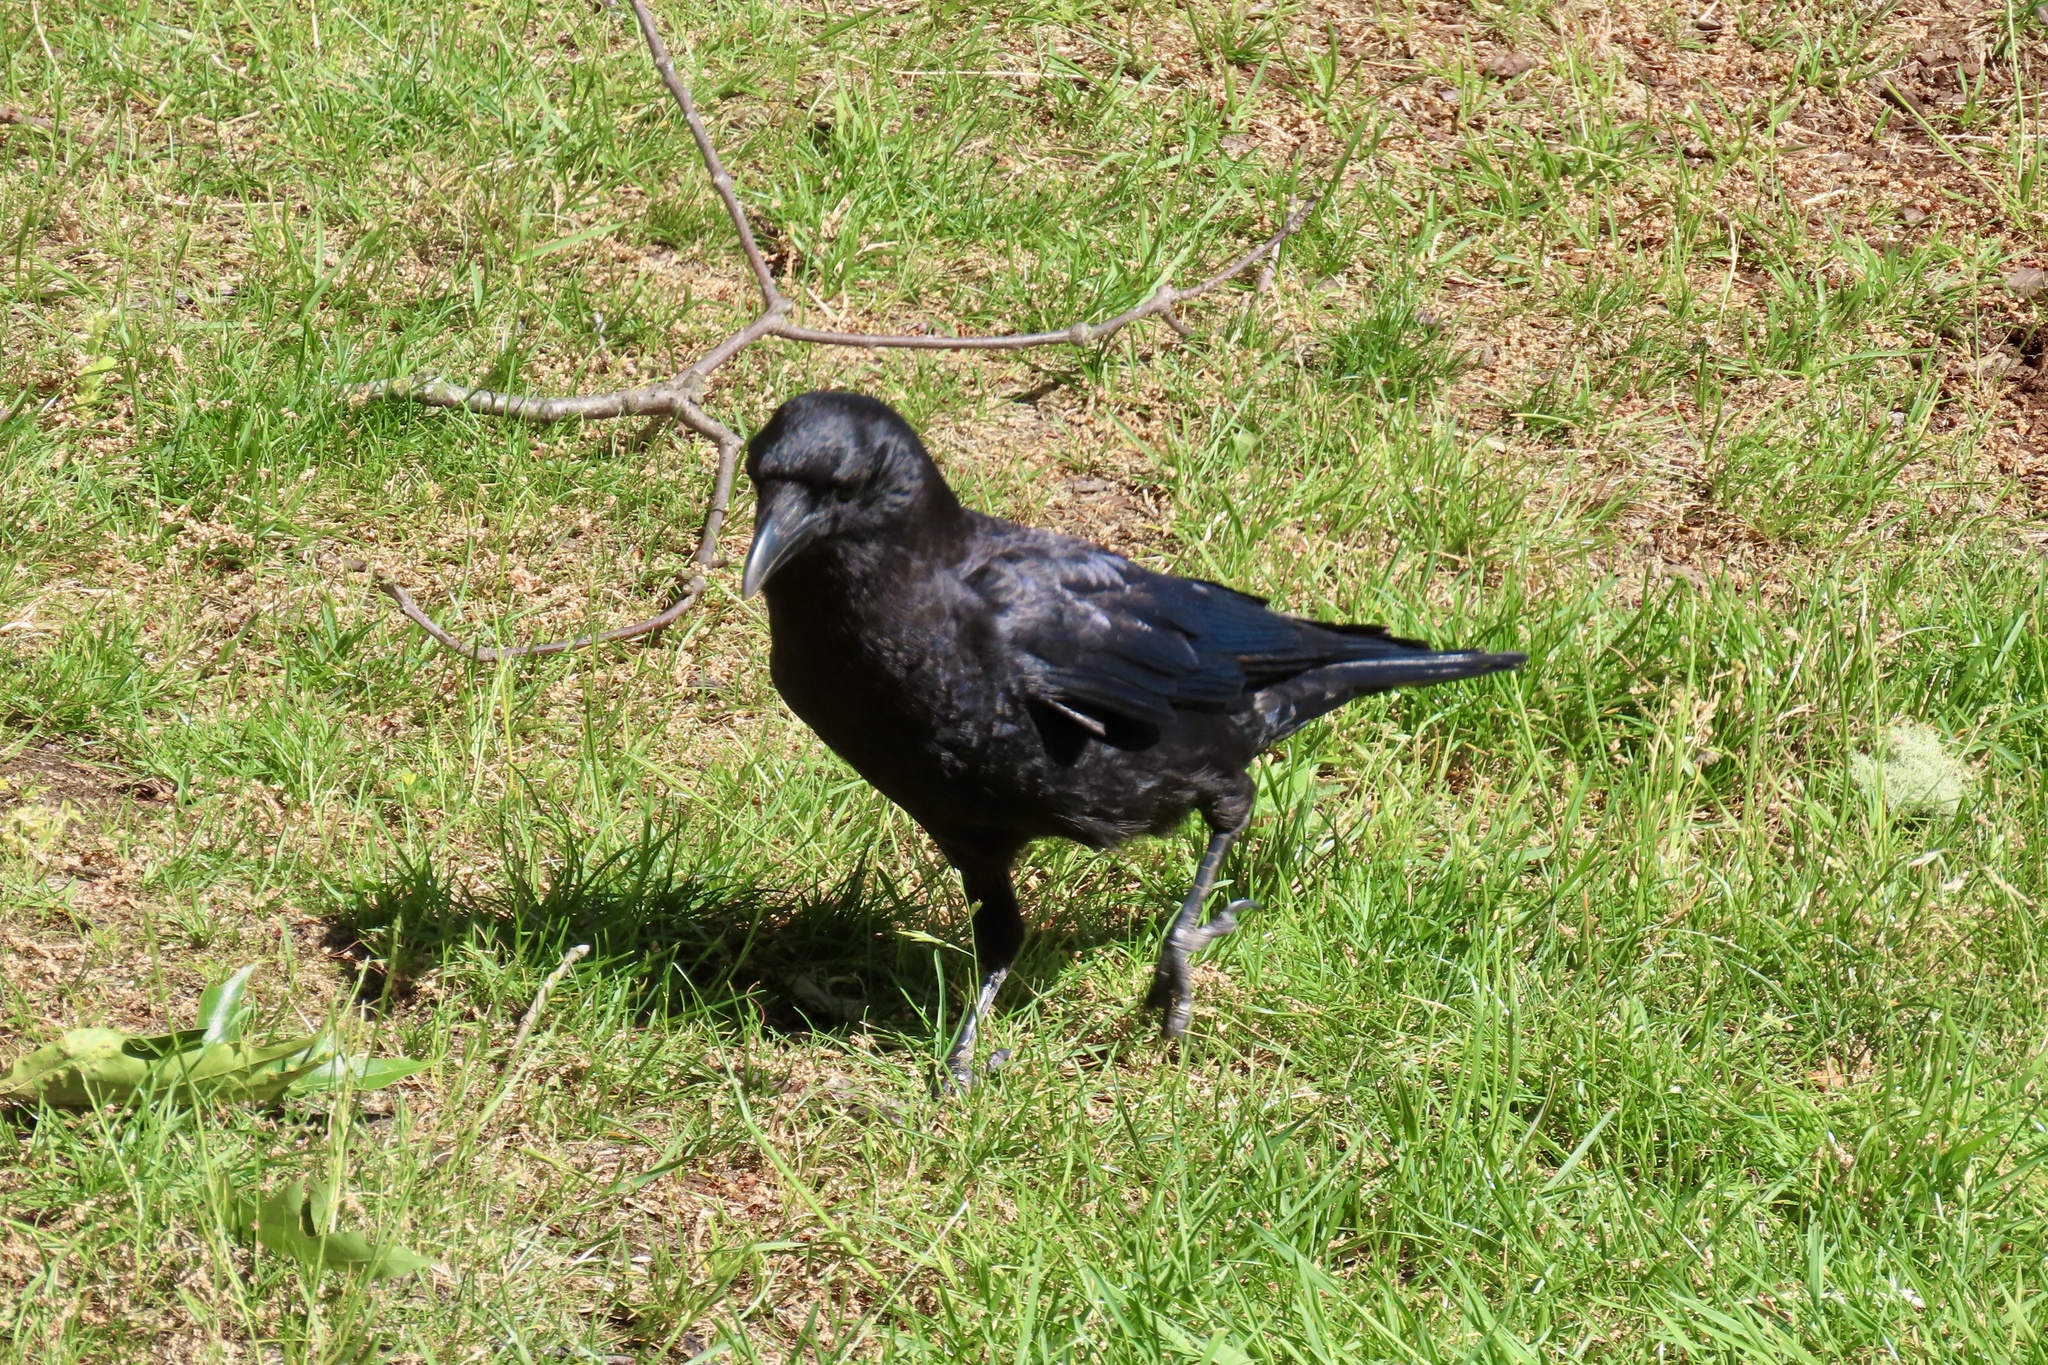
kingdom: Animalia
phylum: Chordata
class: Aves
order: Passeriformes
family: Corvidae
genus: Corvus
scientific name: Corvus brachyrhynchos
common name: American crow
